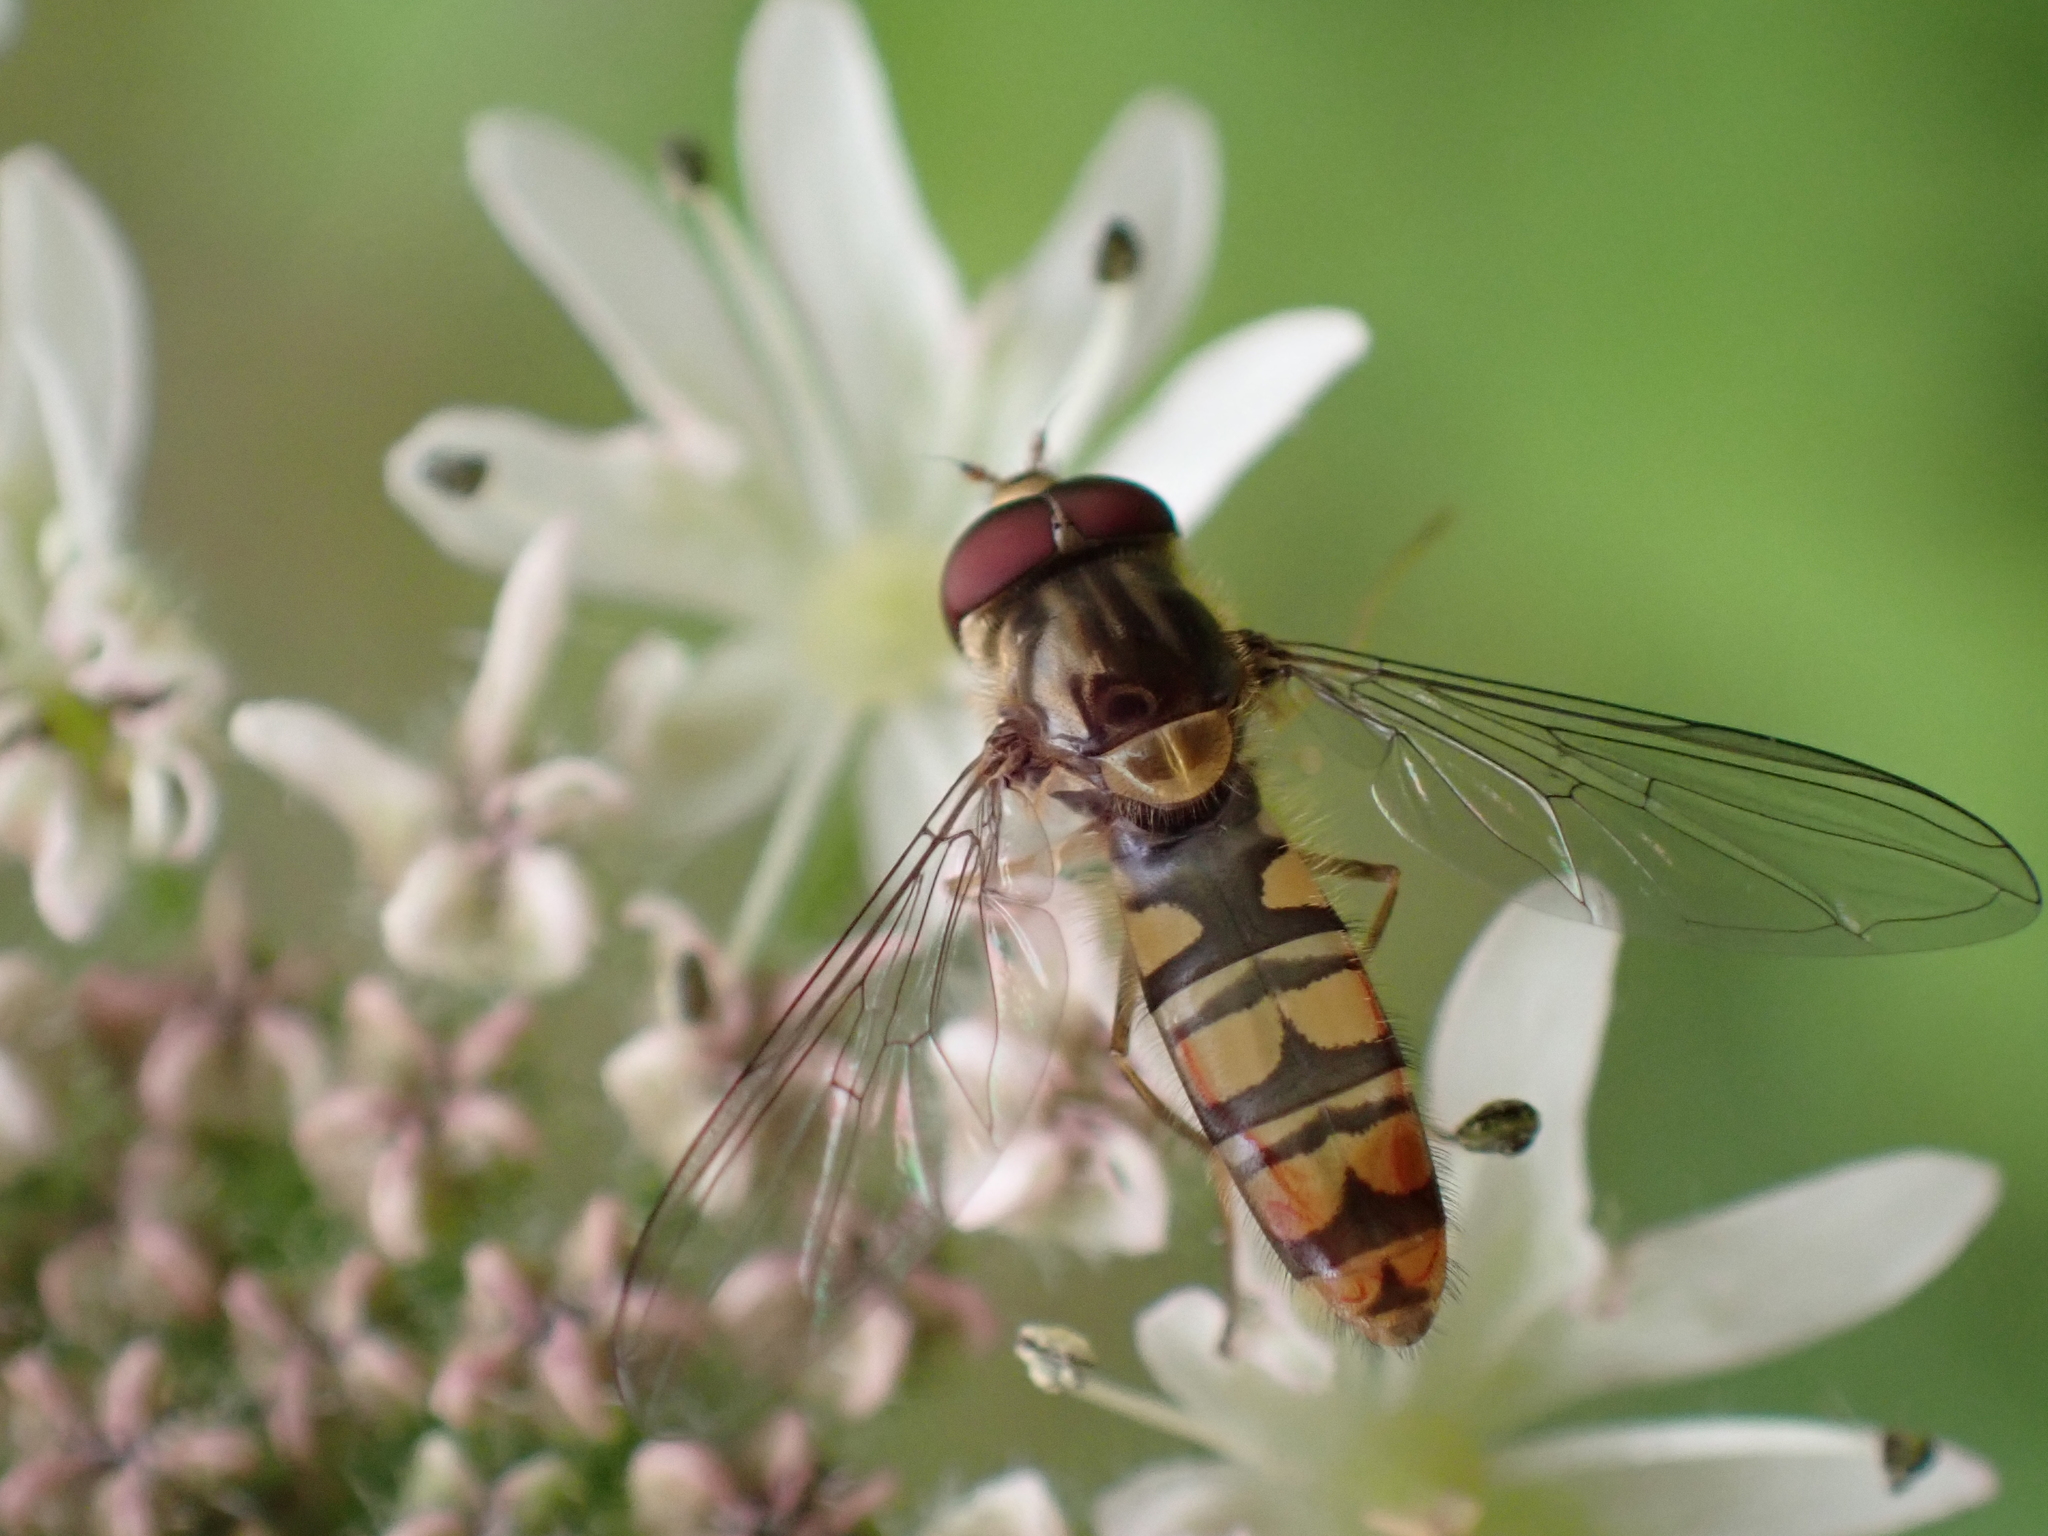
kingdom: Animalia
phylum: Arthropoda
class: Insecta
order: Diptera
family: Syrphidae
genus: Episyrphus
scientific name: Episyrphus balteatus
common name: Marmalade hoverfly
